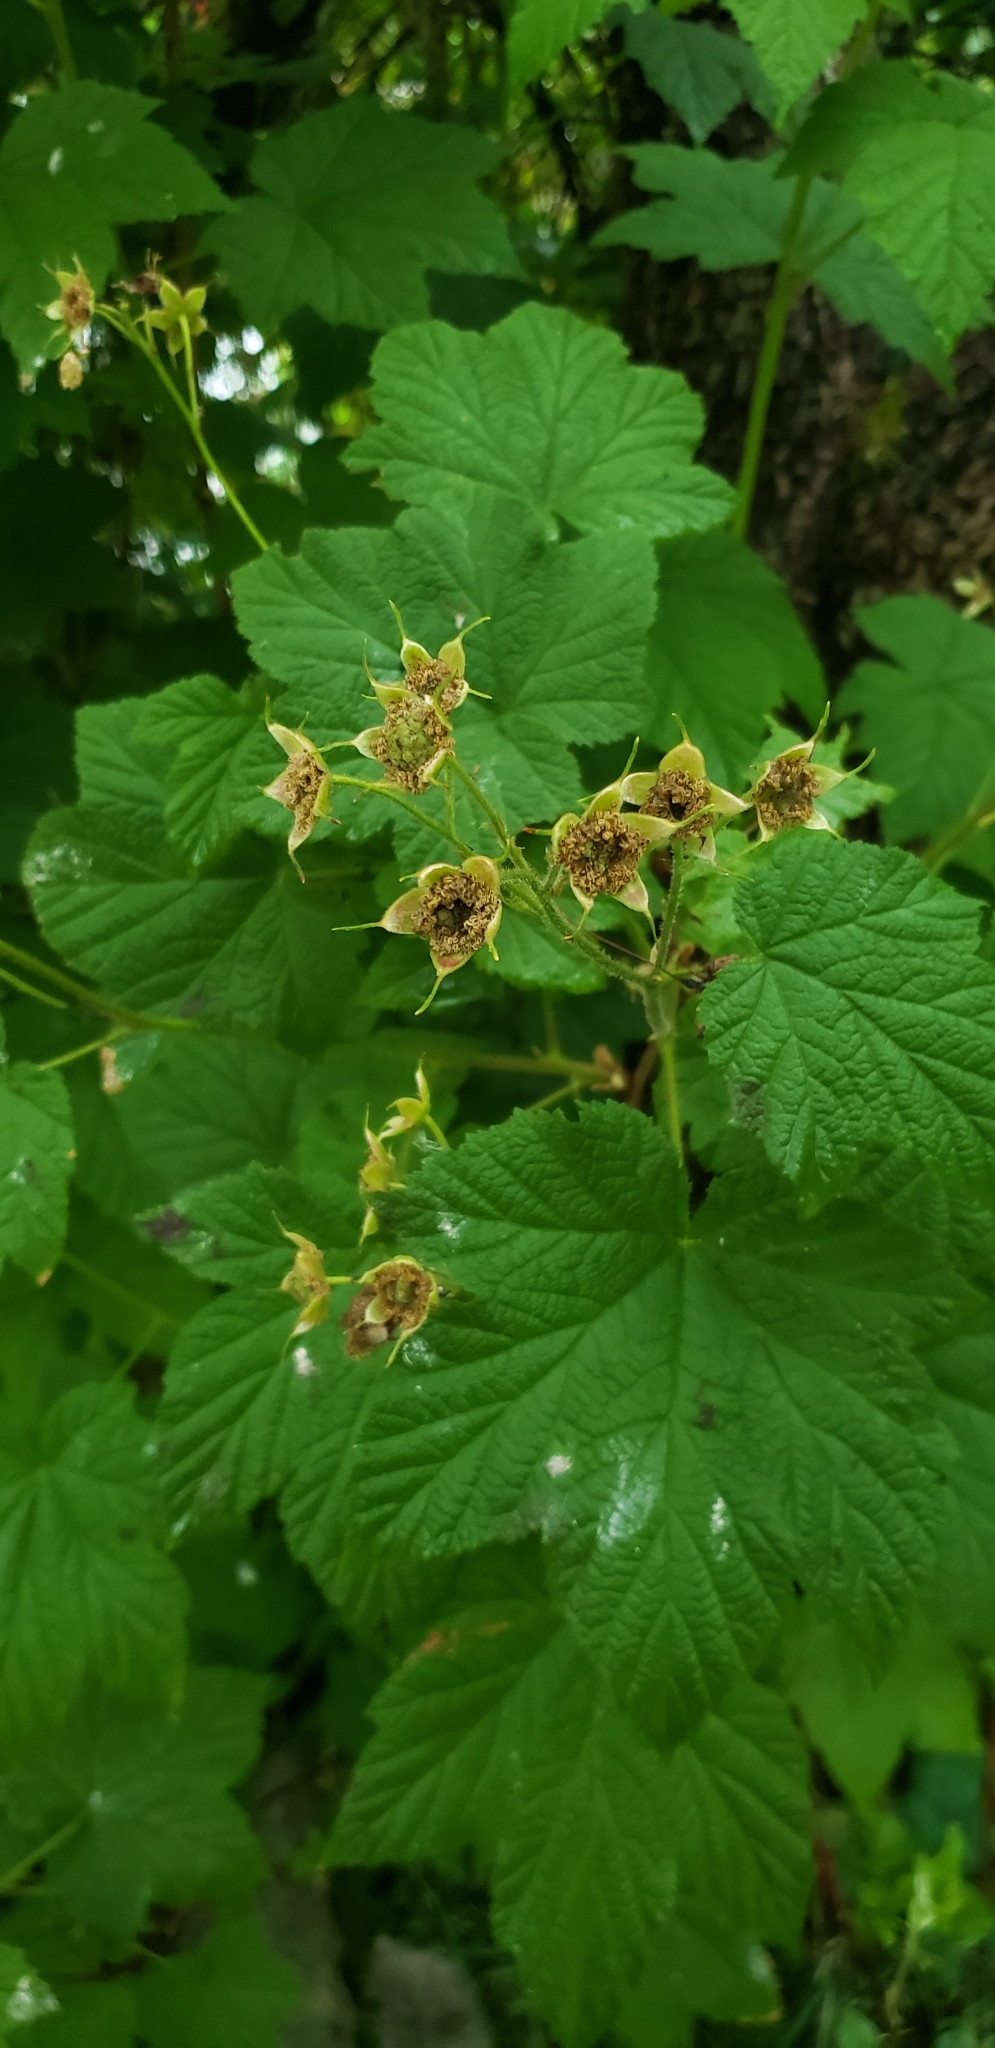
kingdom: Plantae
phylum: Tracheophyta
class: Magnoliopsida
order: Rosales
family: Rosaceae
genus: Rubus
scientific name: Rubus parviflorus
